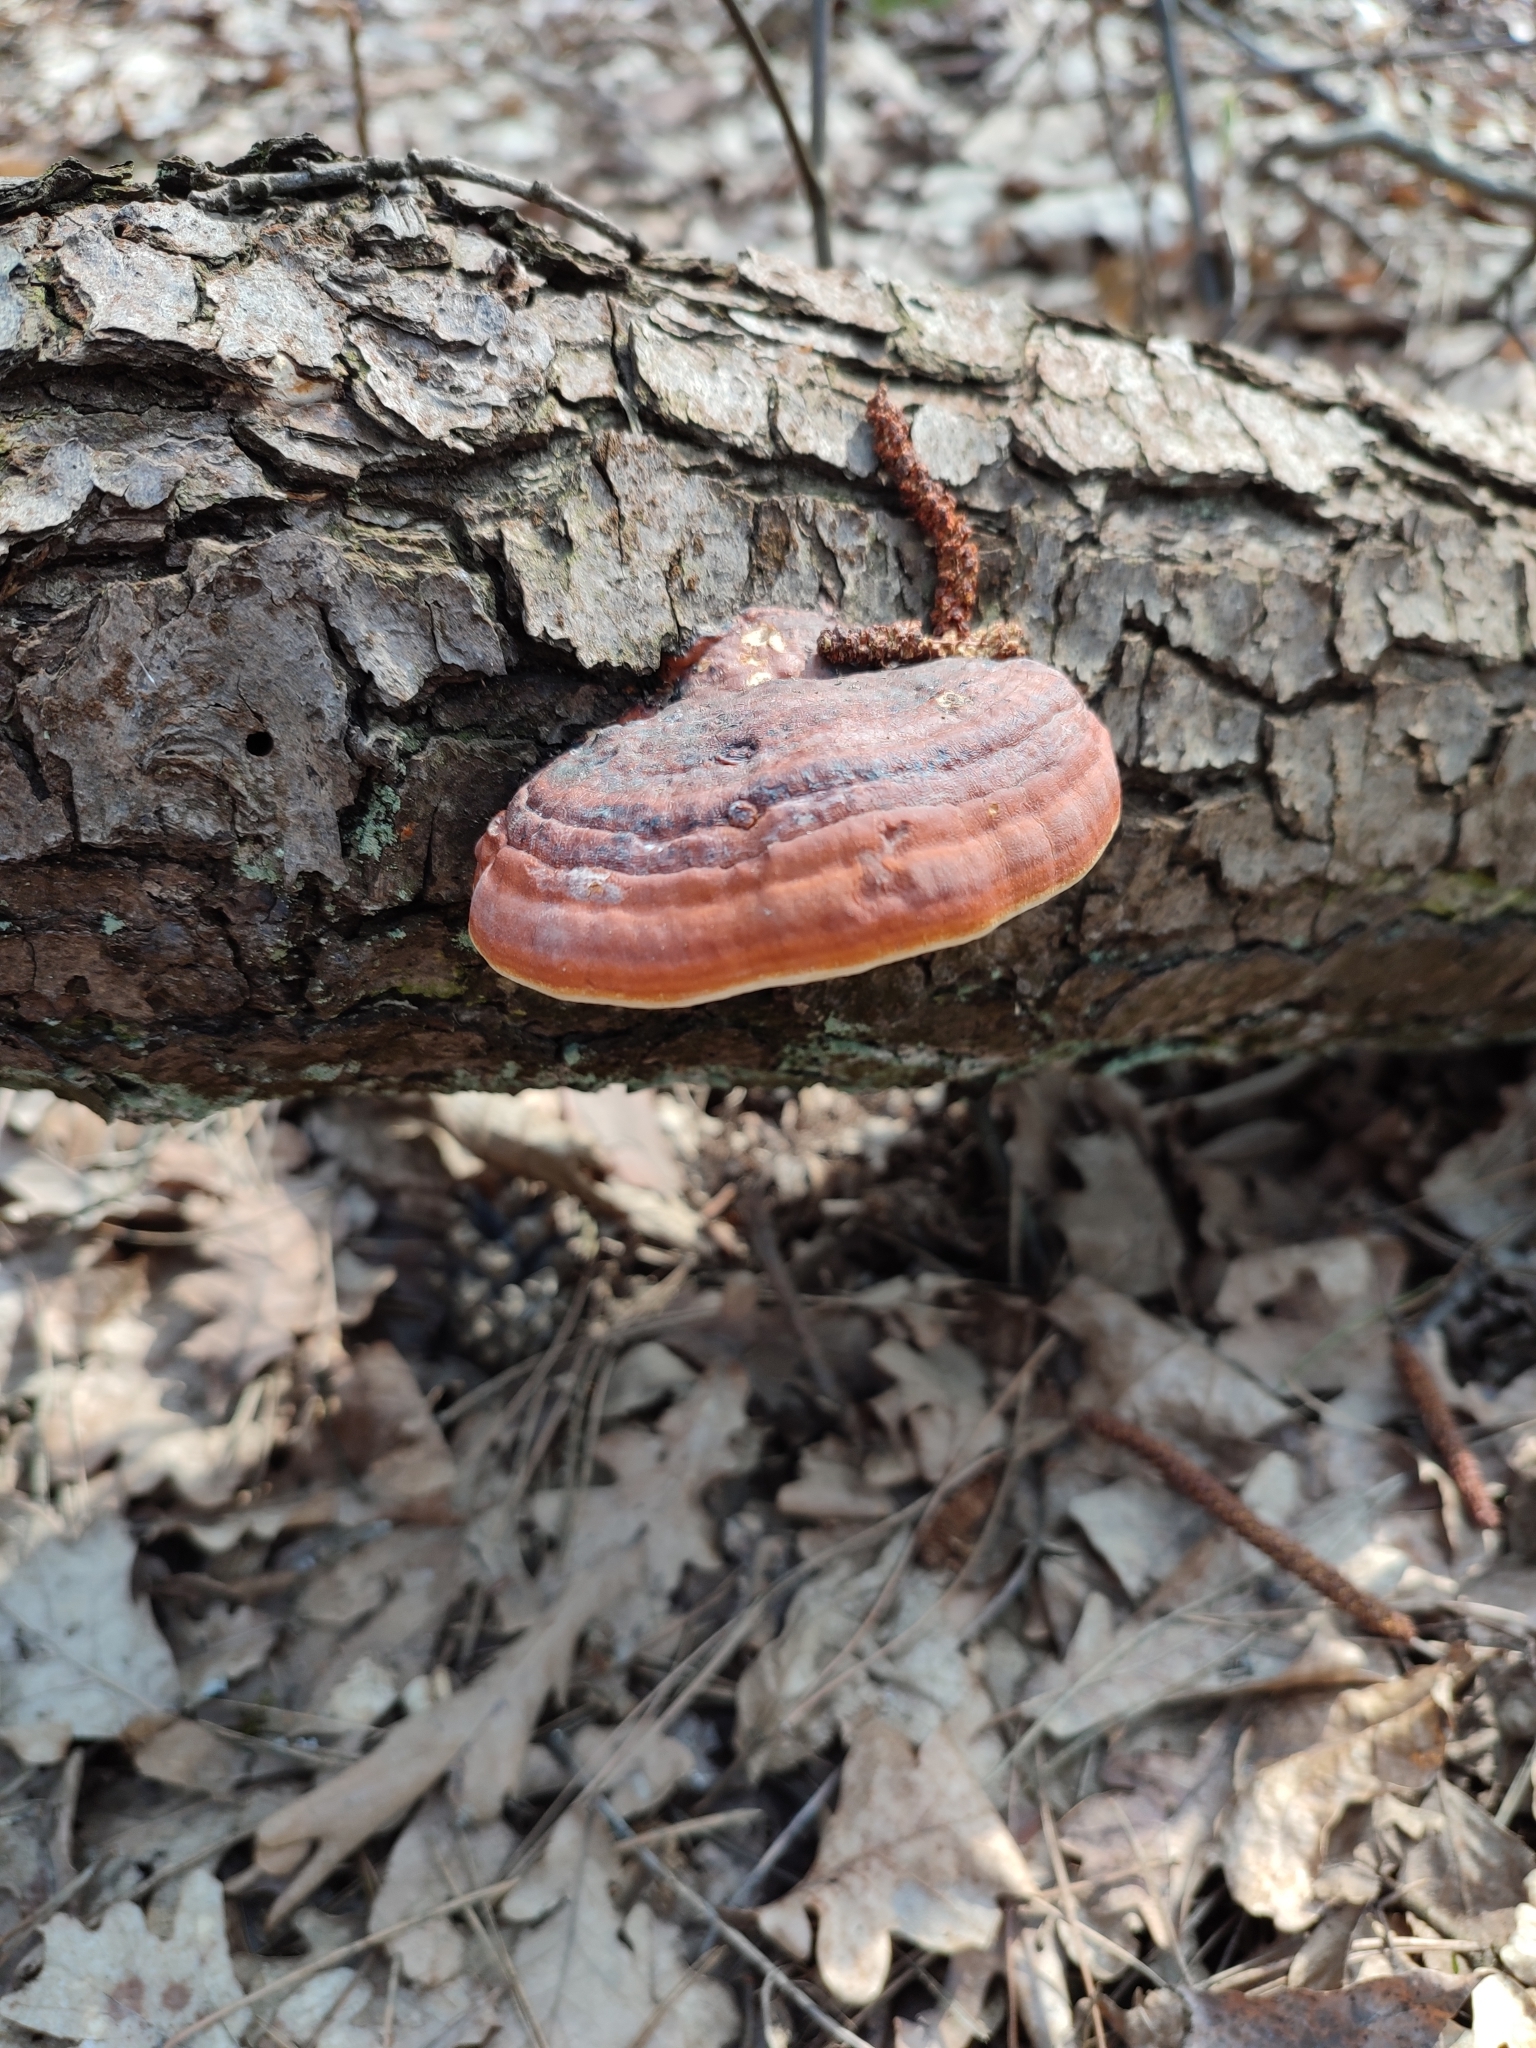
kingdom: Fungi
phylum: Basidiomycota
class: Agaricomycetes
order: Polyporales
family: Fomitopsidaceae
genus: Fomitopsis
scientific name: Fomitopsis pinicola
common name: Red-belted bracket
